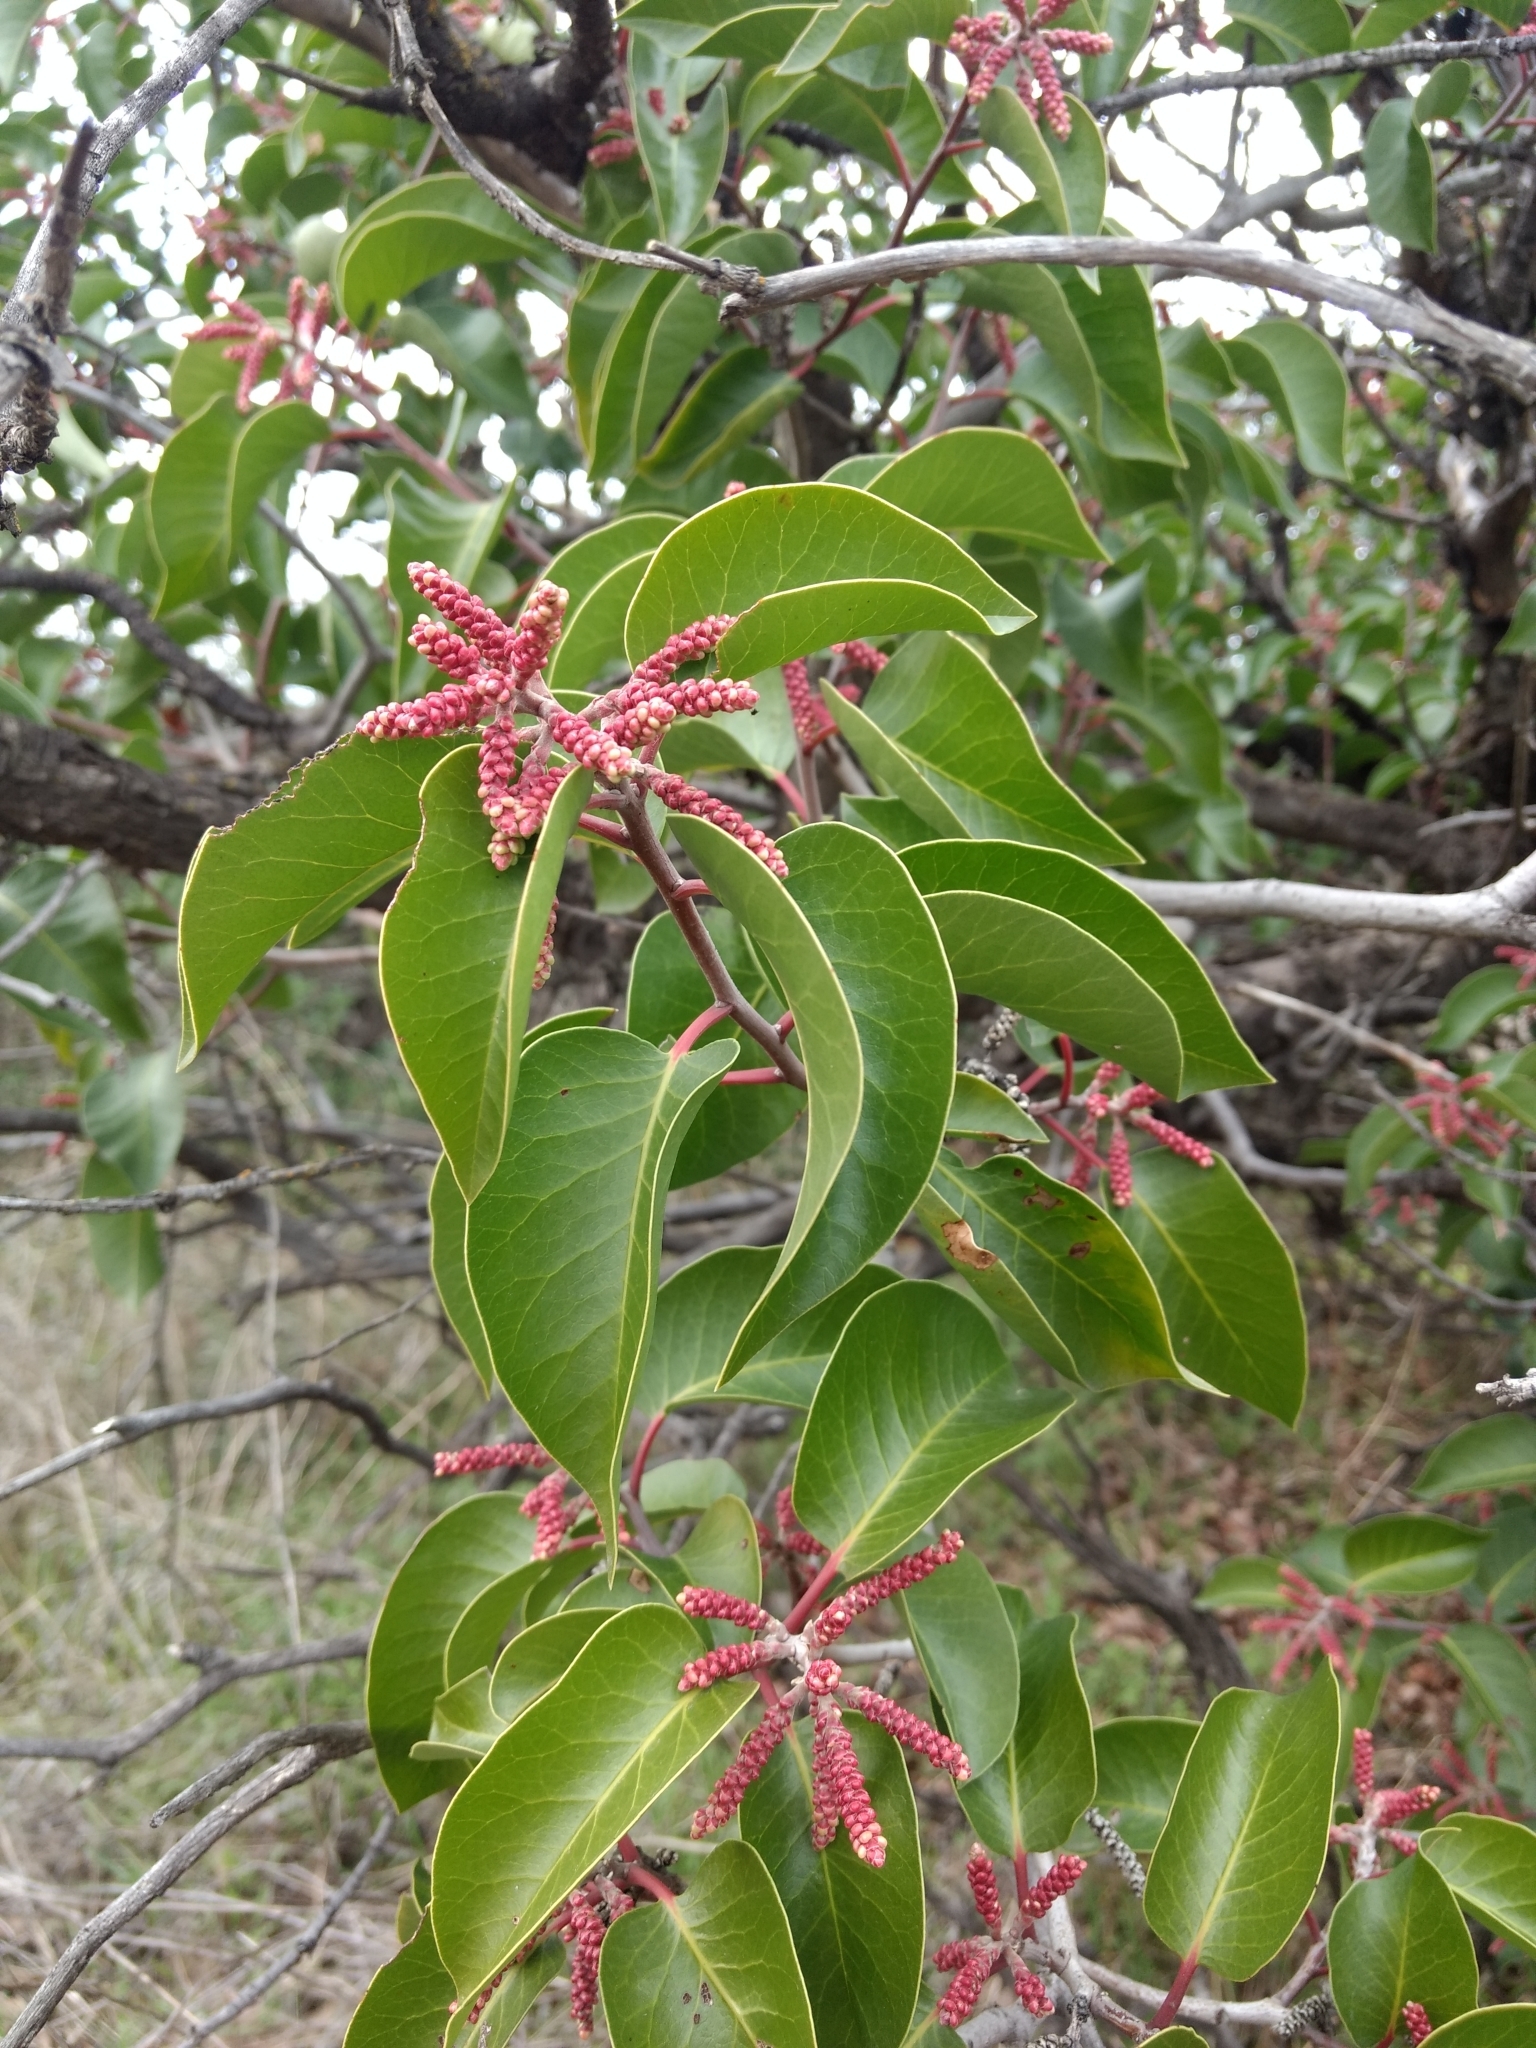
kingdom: Plantae
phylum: Tracheophyta
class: Magnoliopsida
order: Sapindales
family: Anacardiaceae
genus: Rhus
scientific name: Rhus ovata
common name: Sugar sumac
